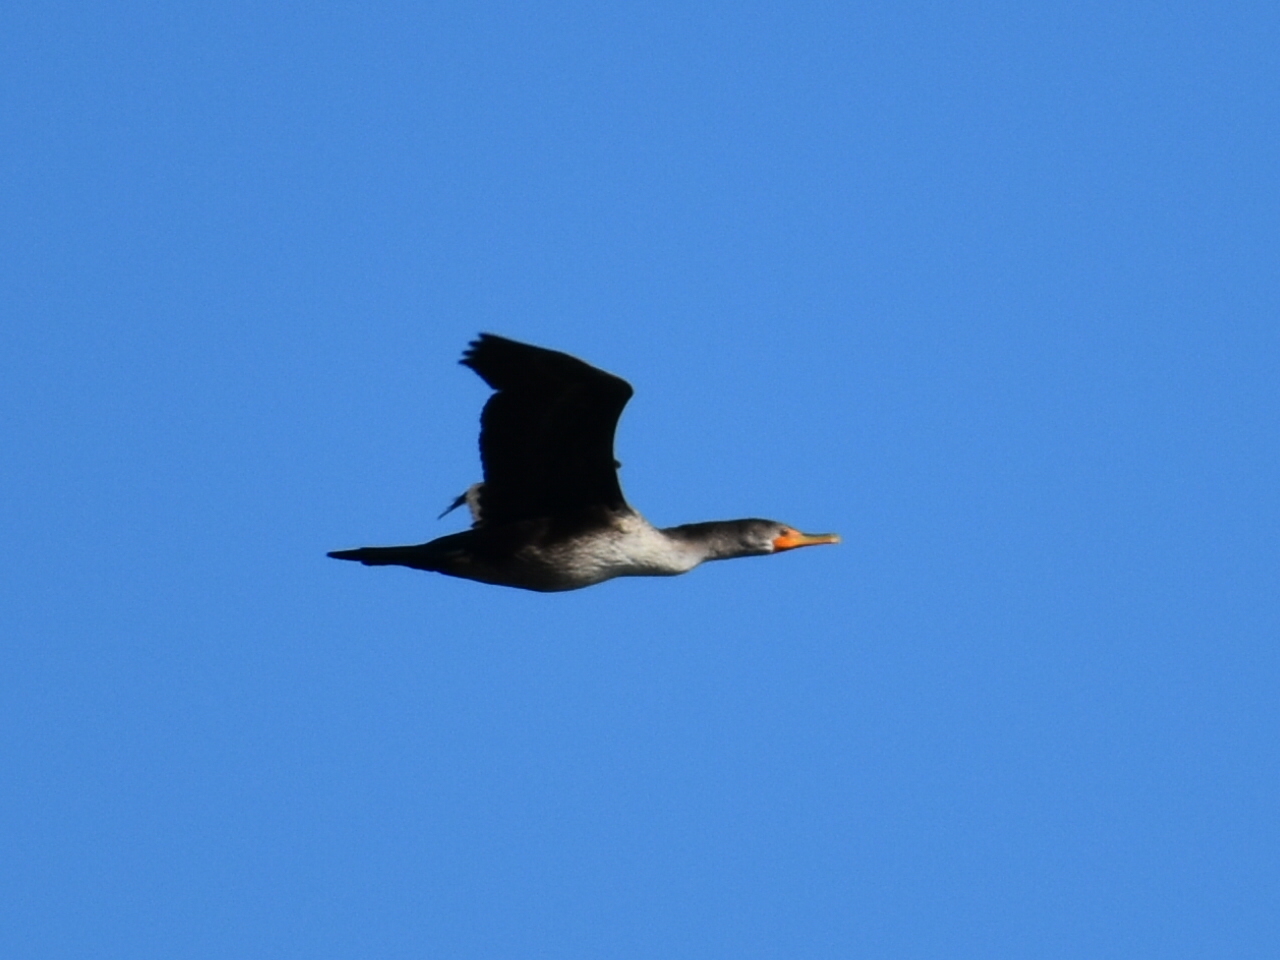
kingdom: Animalia
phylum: Chordata
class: Aves
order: Suliformes
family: Phalacrocoracidae
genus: Phalacrocorax
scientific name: Phalacrocorax auritus
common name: Double-crested cormorant
